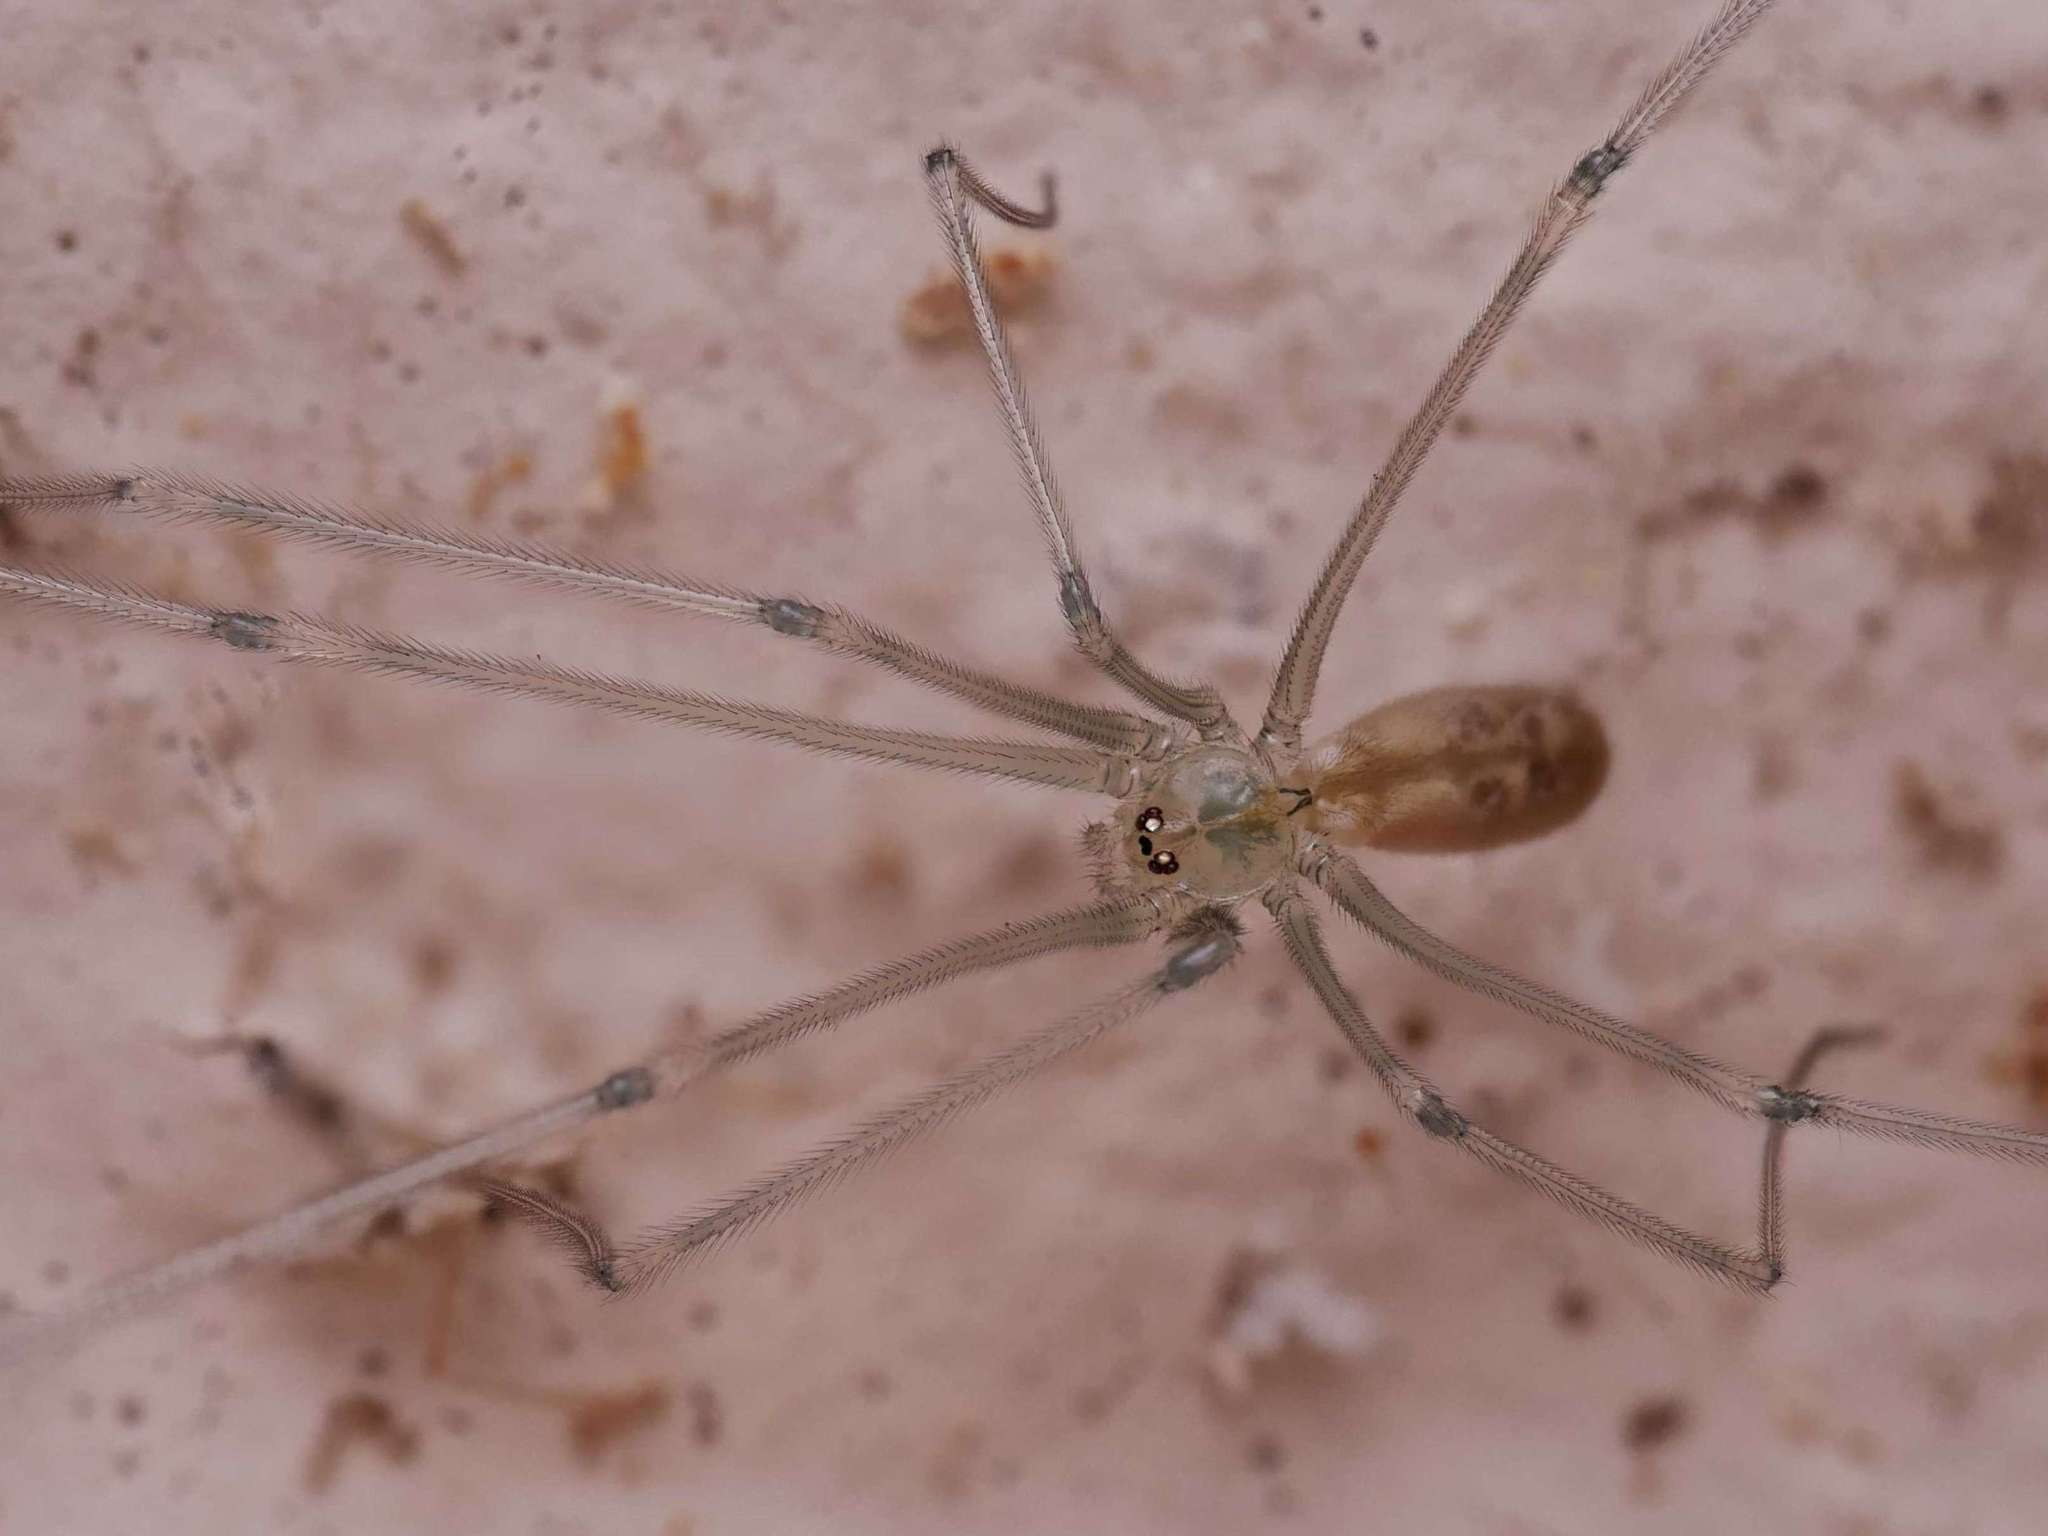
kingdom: Animalia
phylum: Arthropoda
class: Arachnida
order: Araneae
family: Pholcidae
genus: Pholcus
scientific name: Pholcus phalangioides
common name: Longbodied cellar spider
